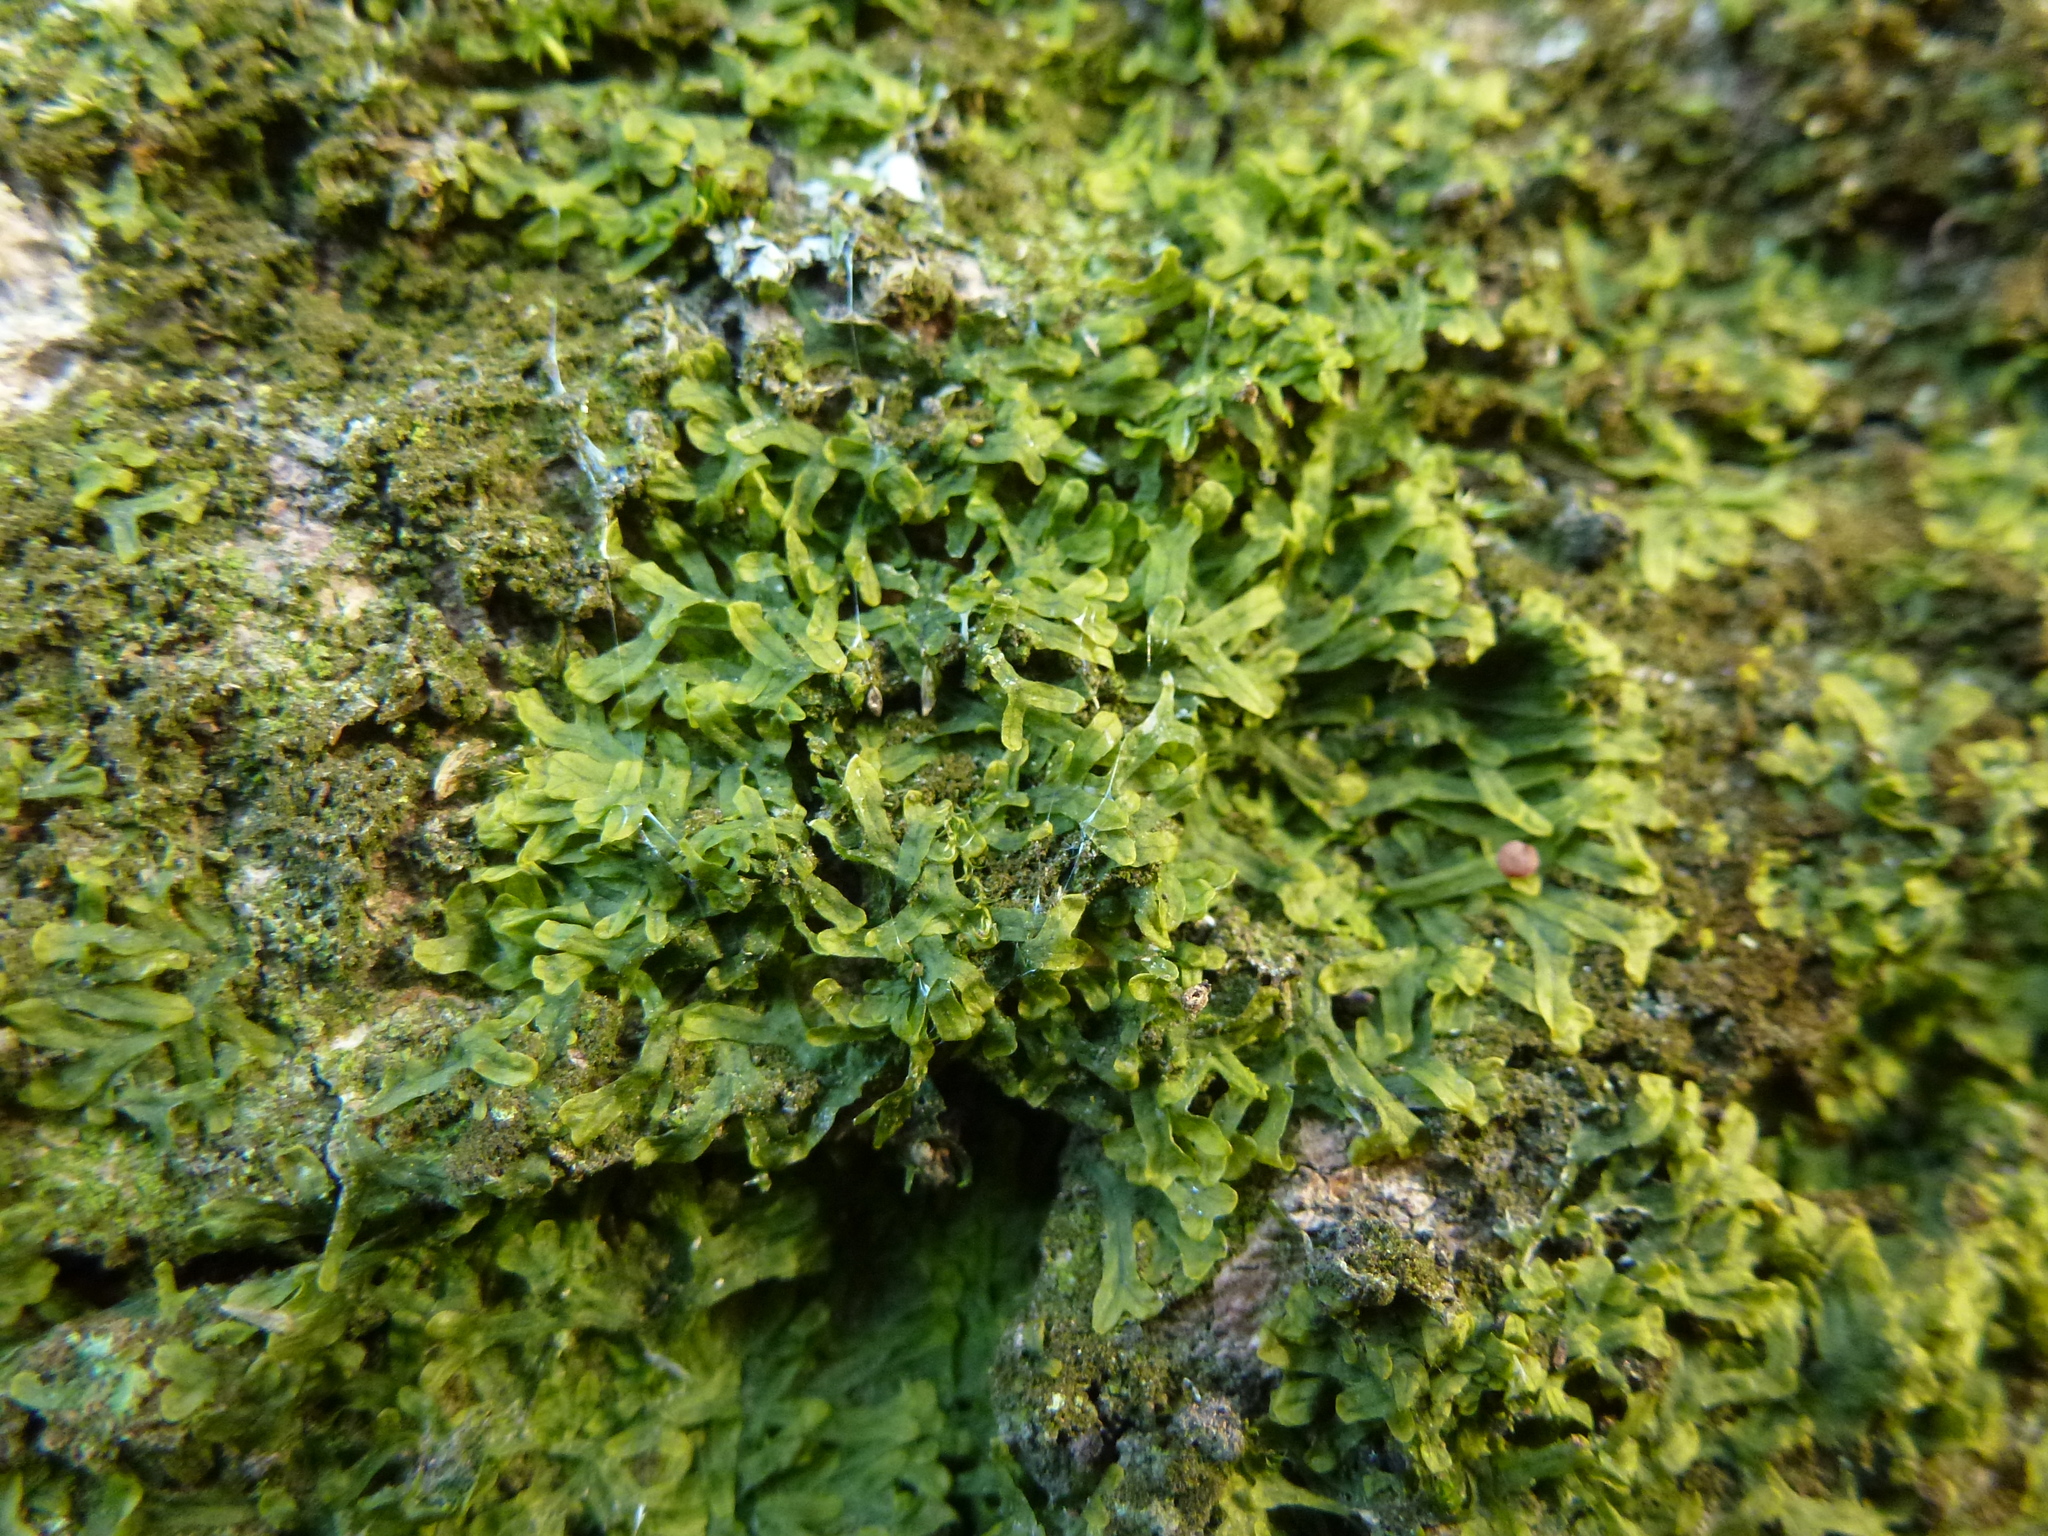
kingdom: Plantae
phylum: Marchantiophyta
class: Jungermanniopsida
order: Metzgeriales
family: Metzgeriaceae
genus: Metzgeria
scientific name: Metzgeria furcata
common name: Forked veilwort
